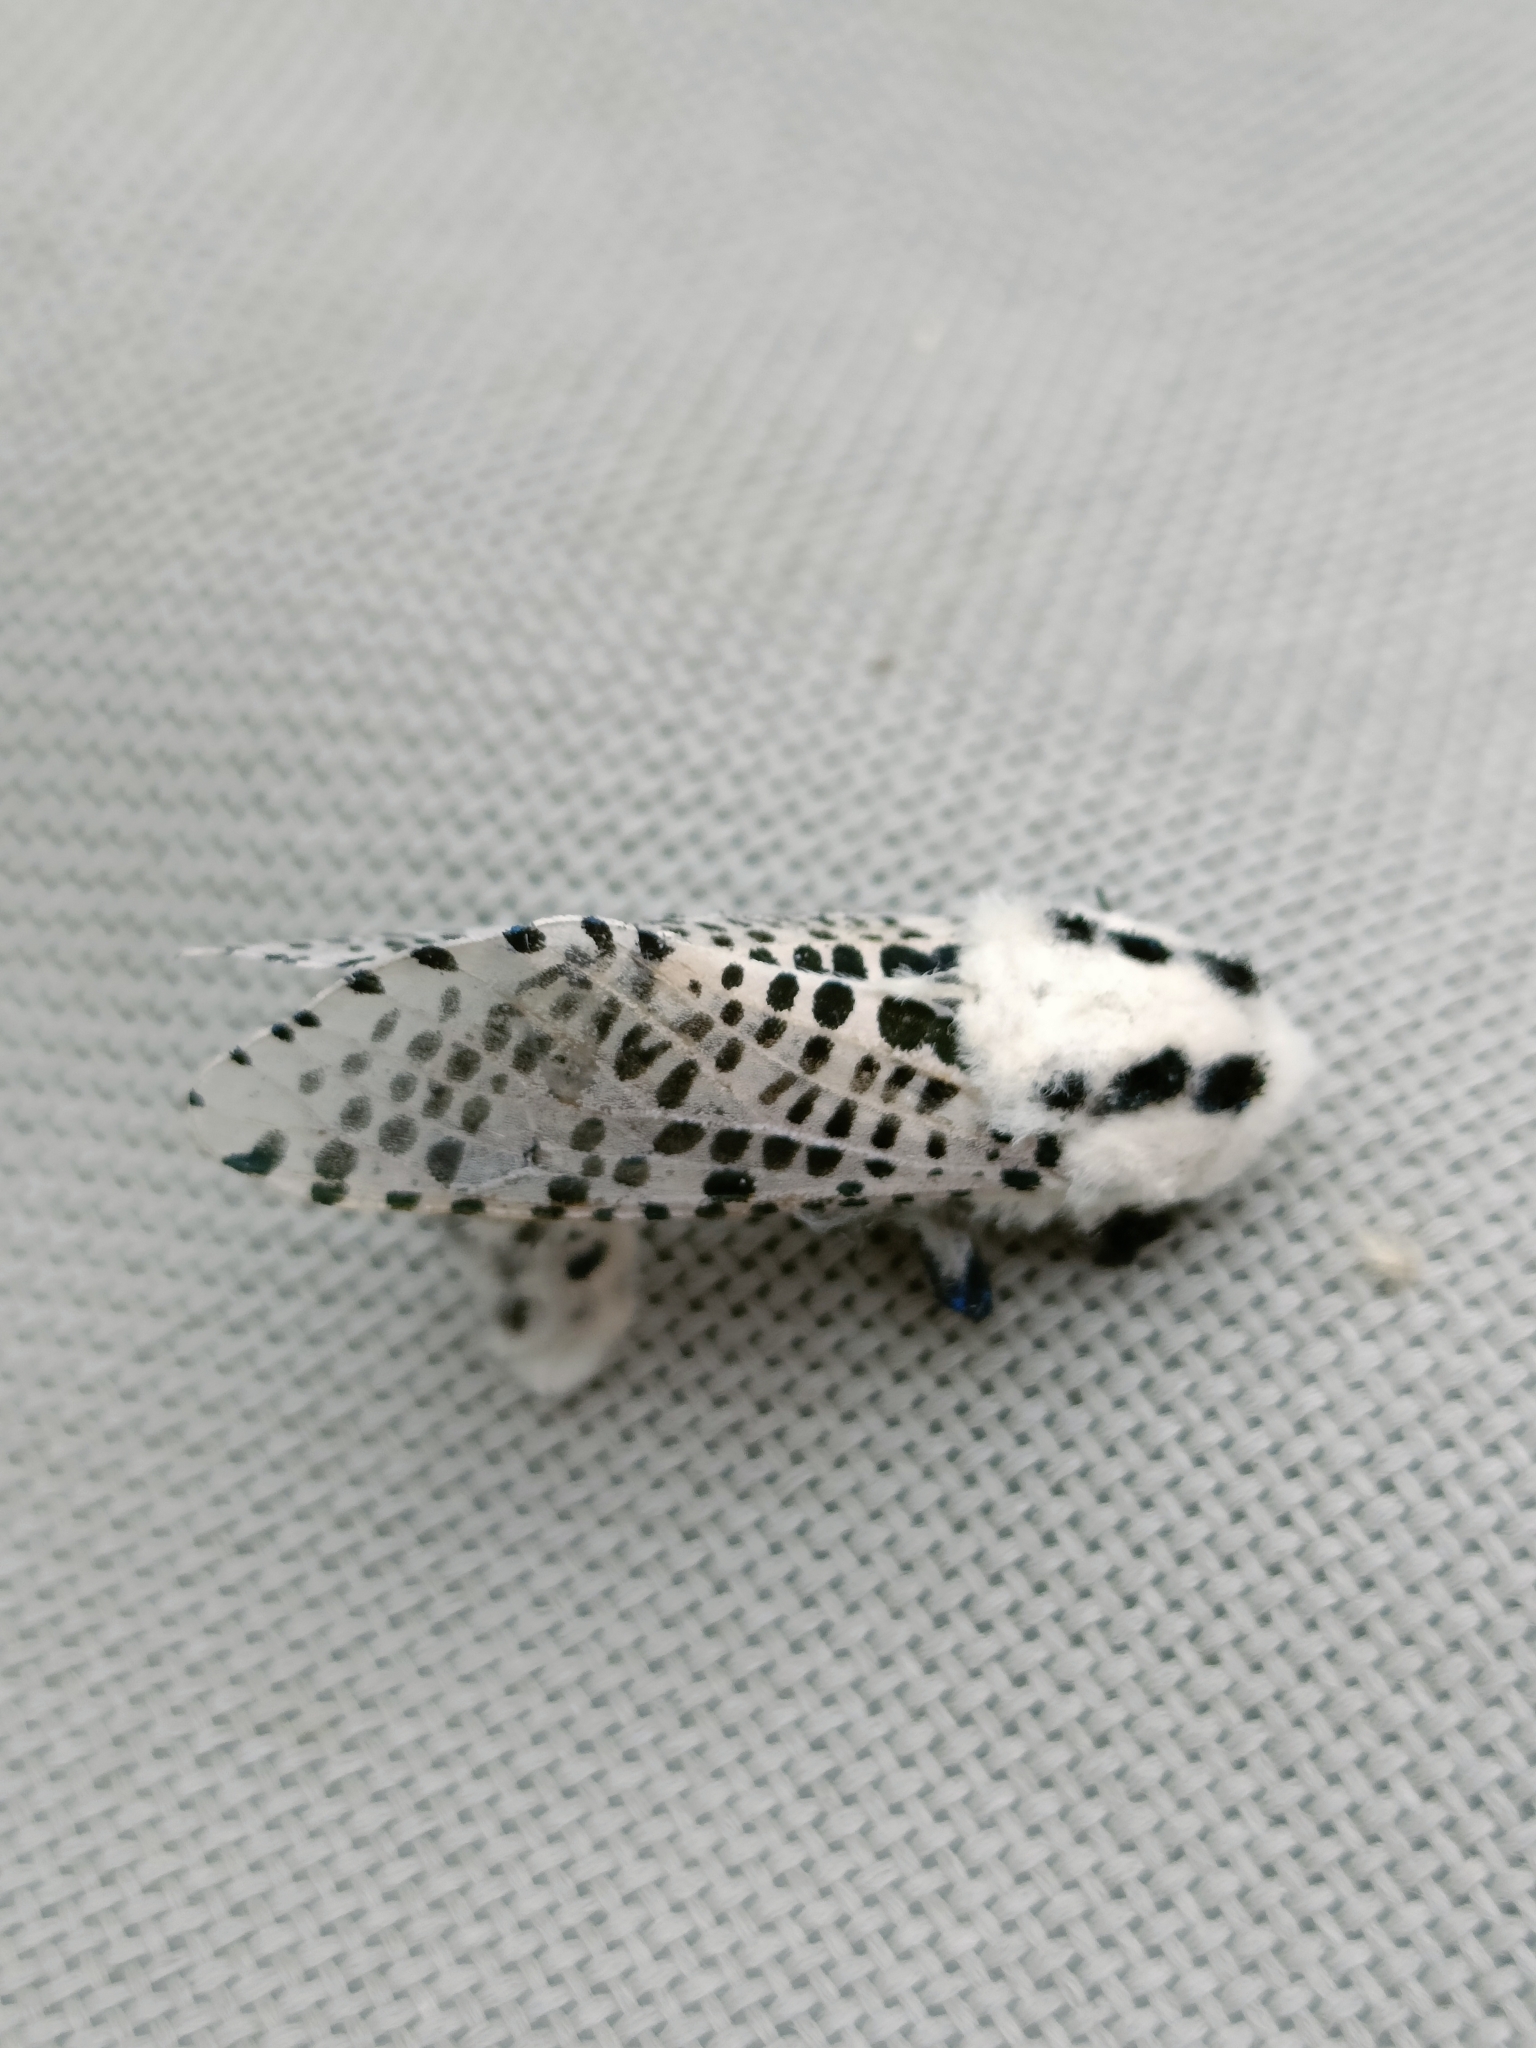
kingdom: Animalia
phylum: Arthropoda
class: Insecta
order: Lepidoptera
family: Cossidae
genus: Zeuzera
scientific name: Zeuzera pyrina
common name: Leopard moth
